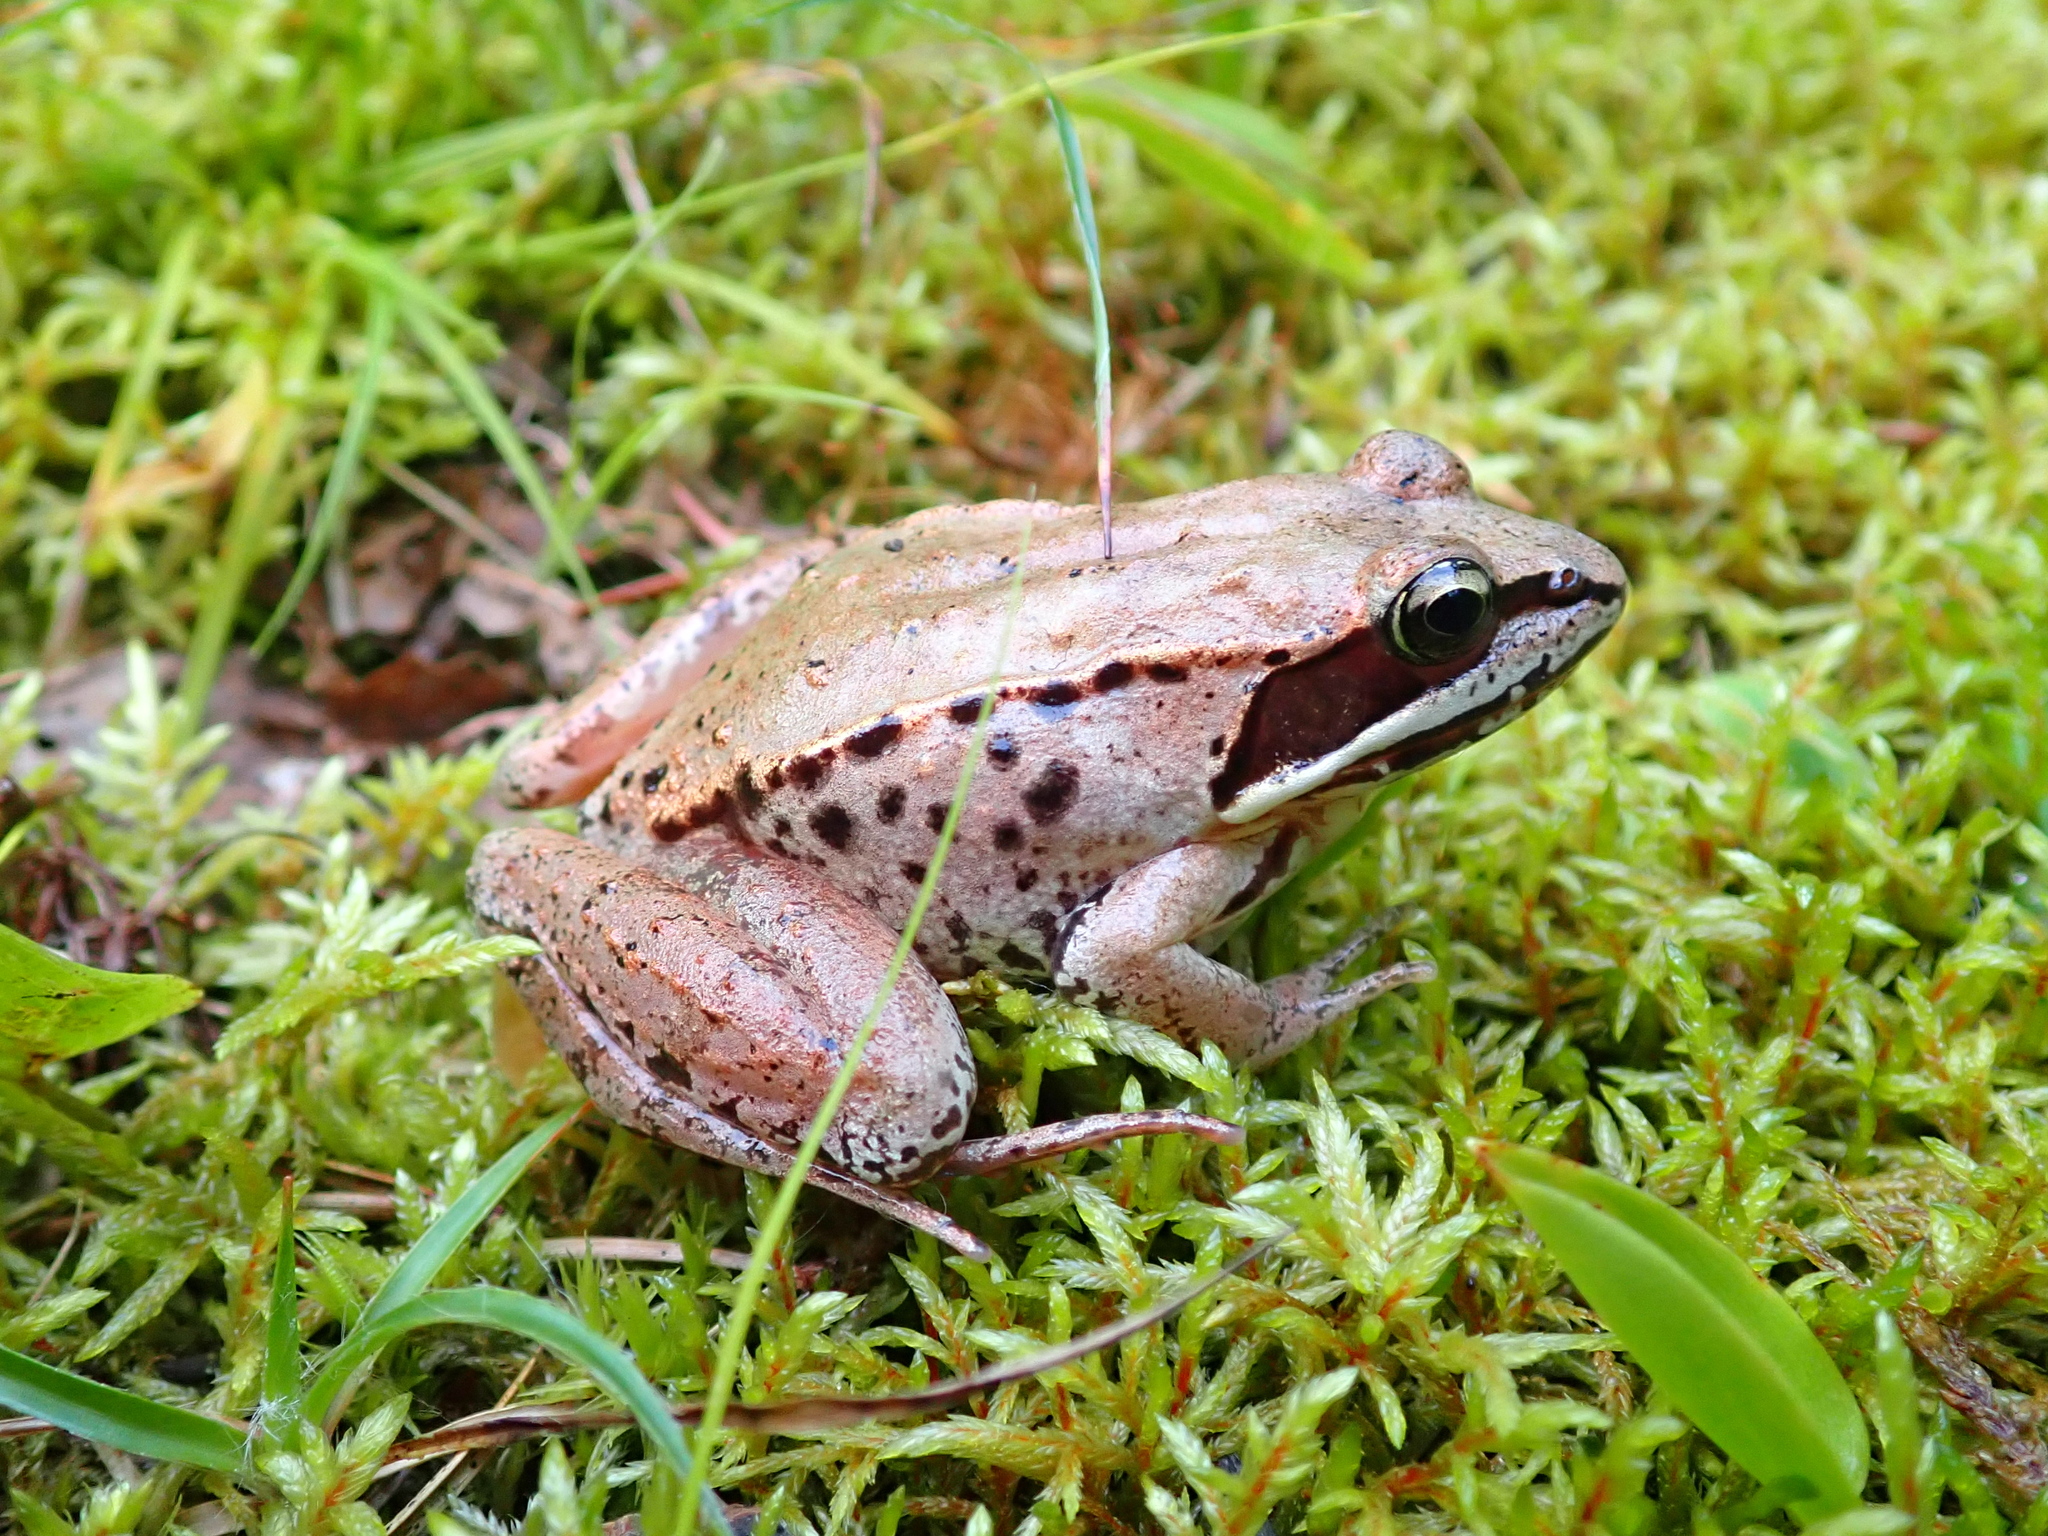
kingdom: Animalia
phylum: Chordata
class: Amphibia
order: Anura
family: Ranidae
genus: Lithobates
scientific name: Lithobates sylvaticus
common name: Wood frog
